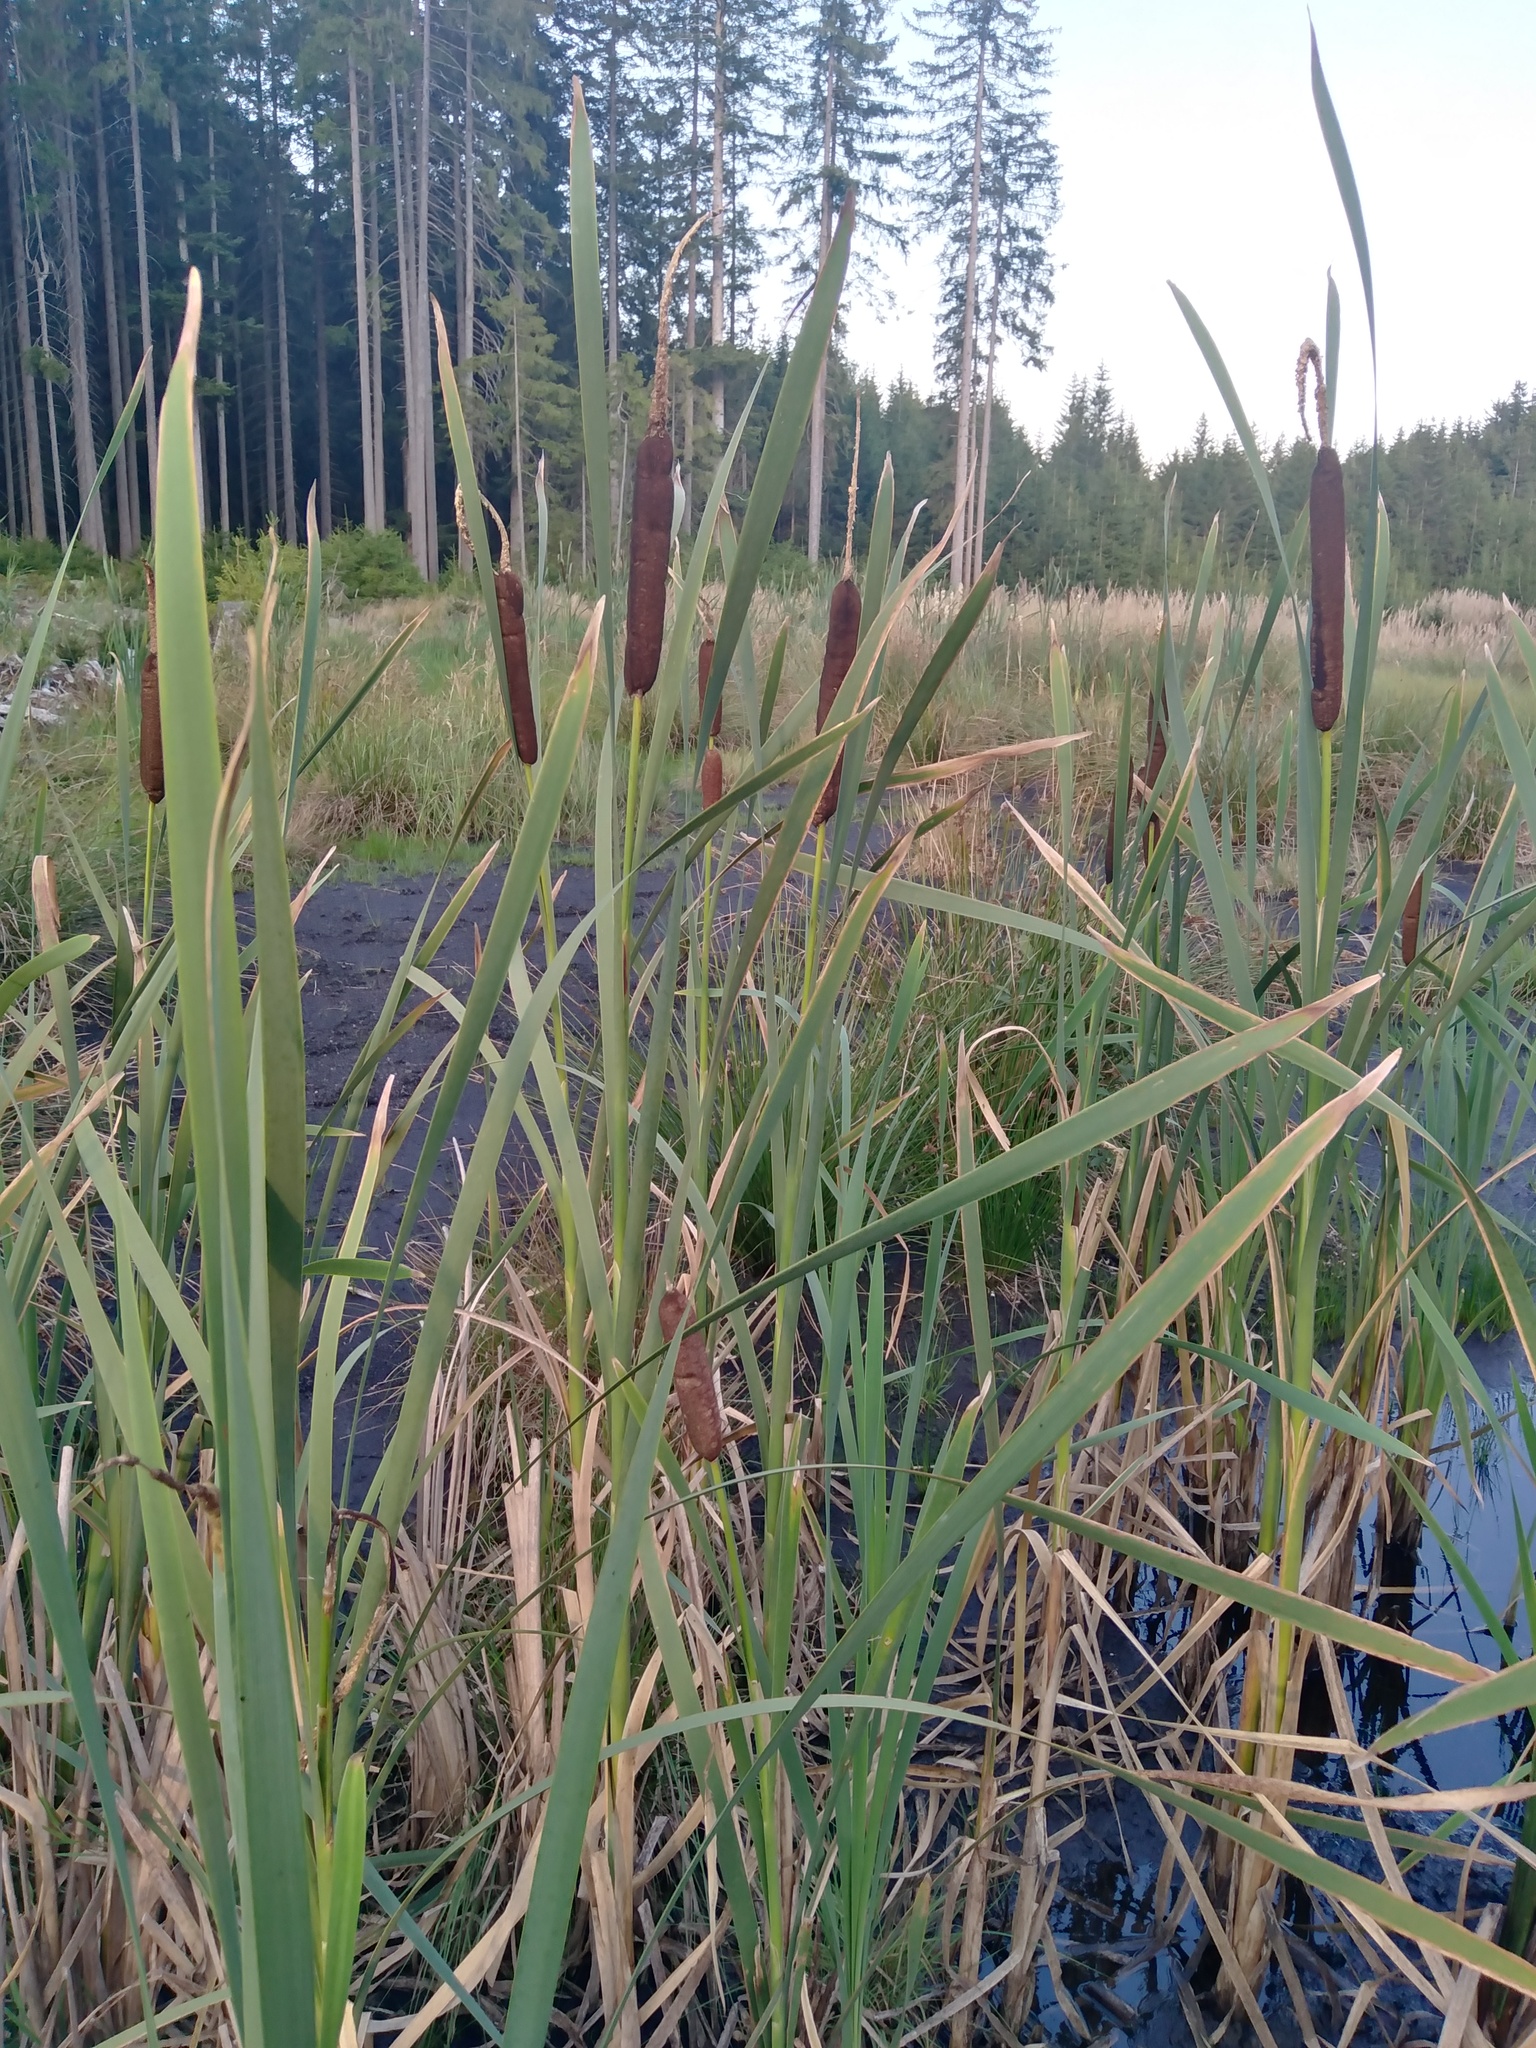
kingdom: Plantae
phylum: Tracheophyta
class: Liliopsida
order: Poales
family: Typhaceae
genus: Typha
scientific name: Typha latifolia
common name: Broadleaf cattail
